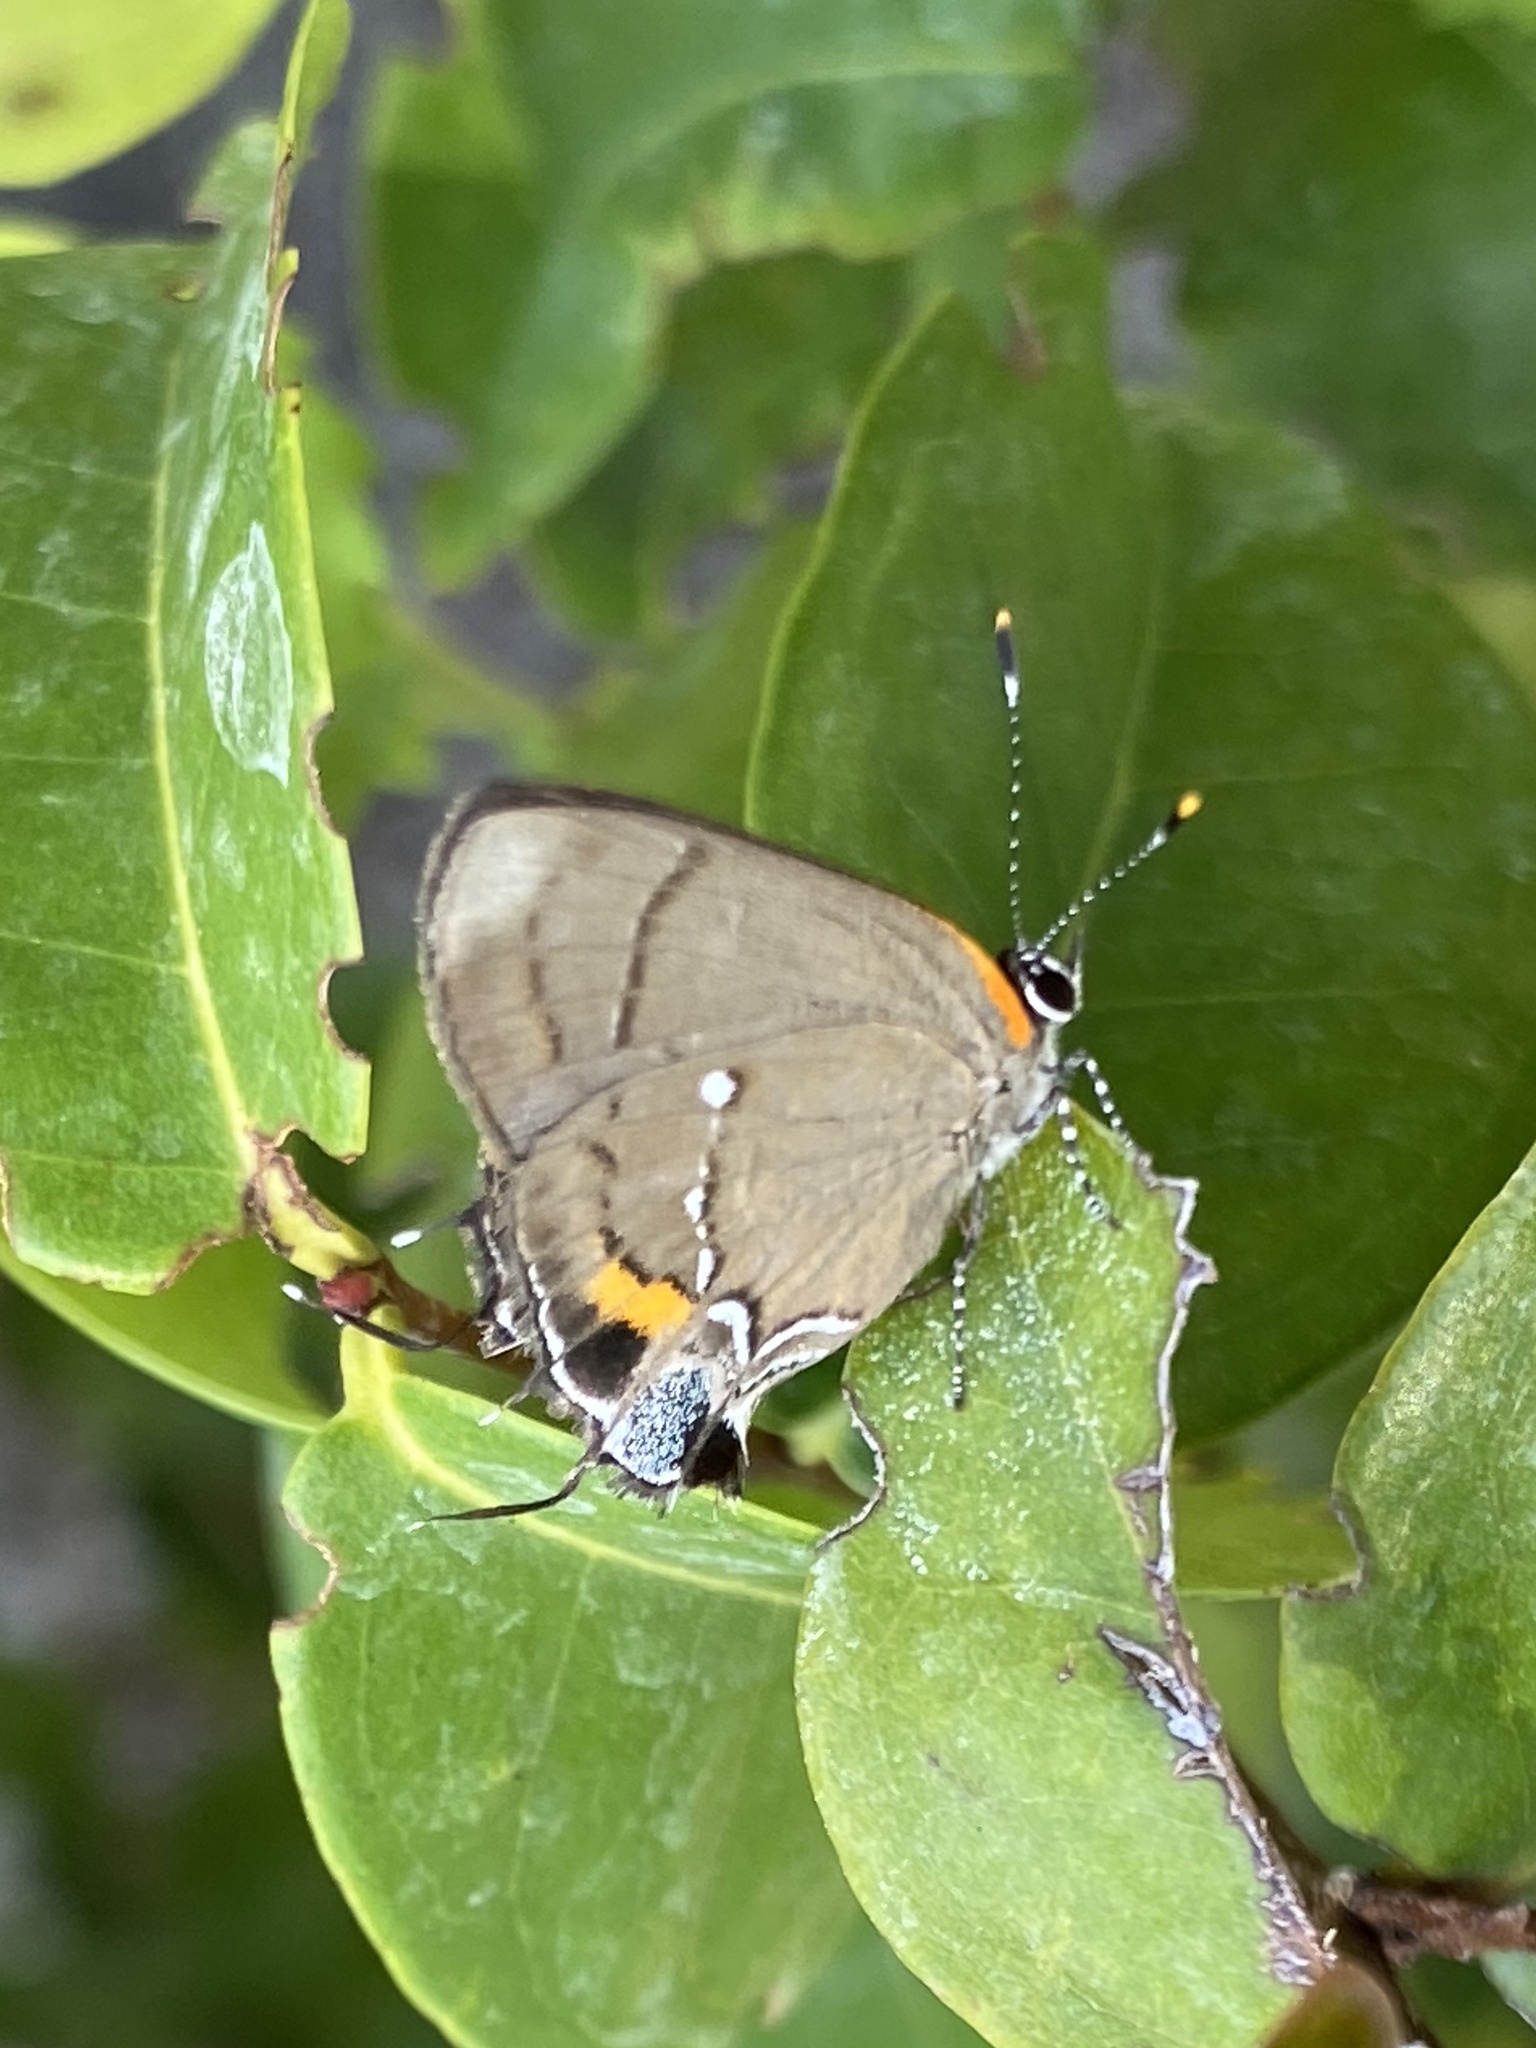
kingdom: Animalia
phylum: Arthropoda
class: Insecta
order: Lepidoptera
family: Lycaenidae
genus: Thecla
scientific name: Thecla angelia
